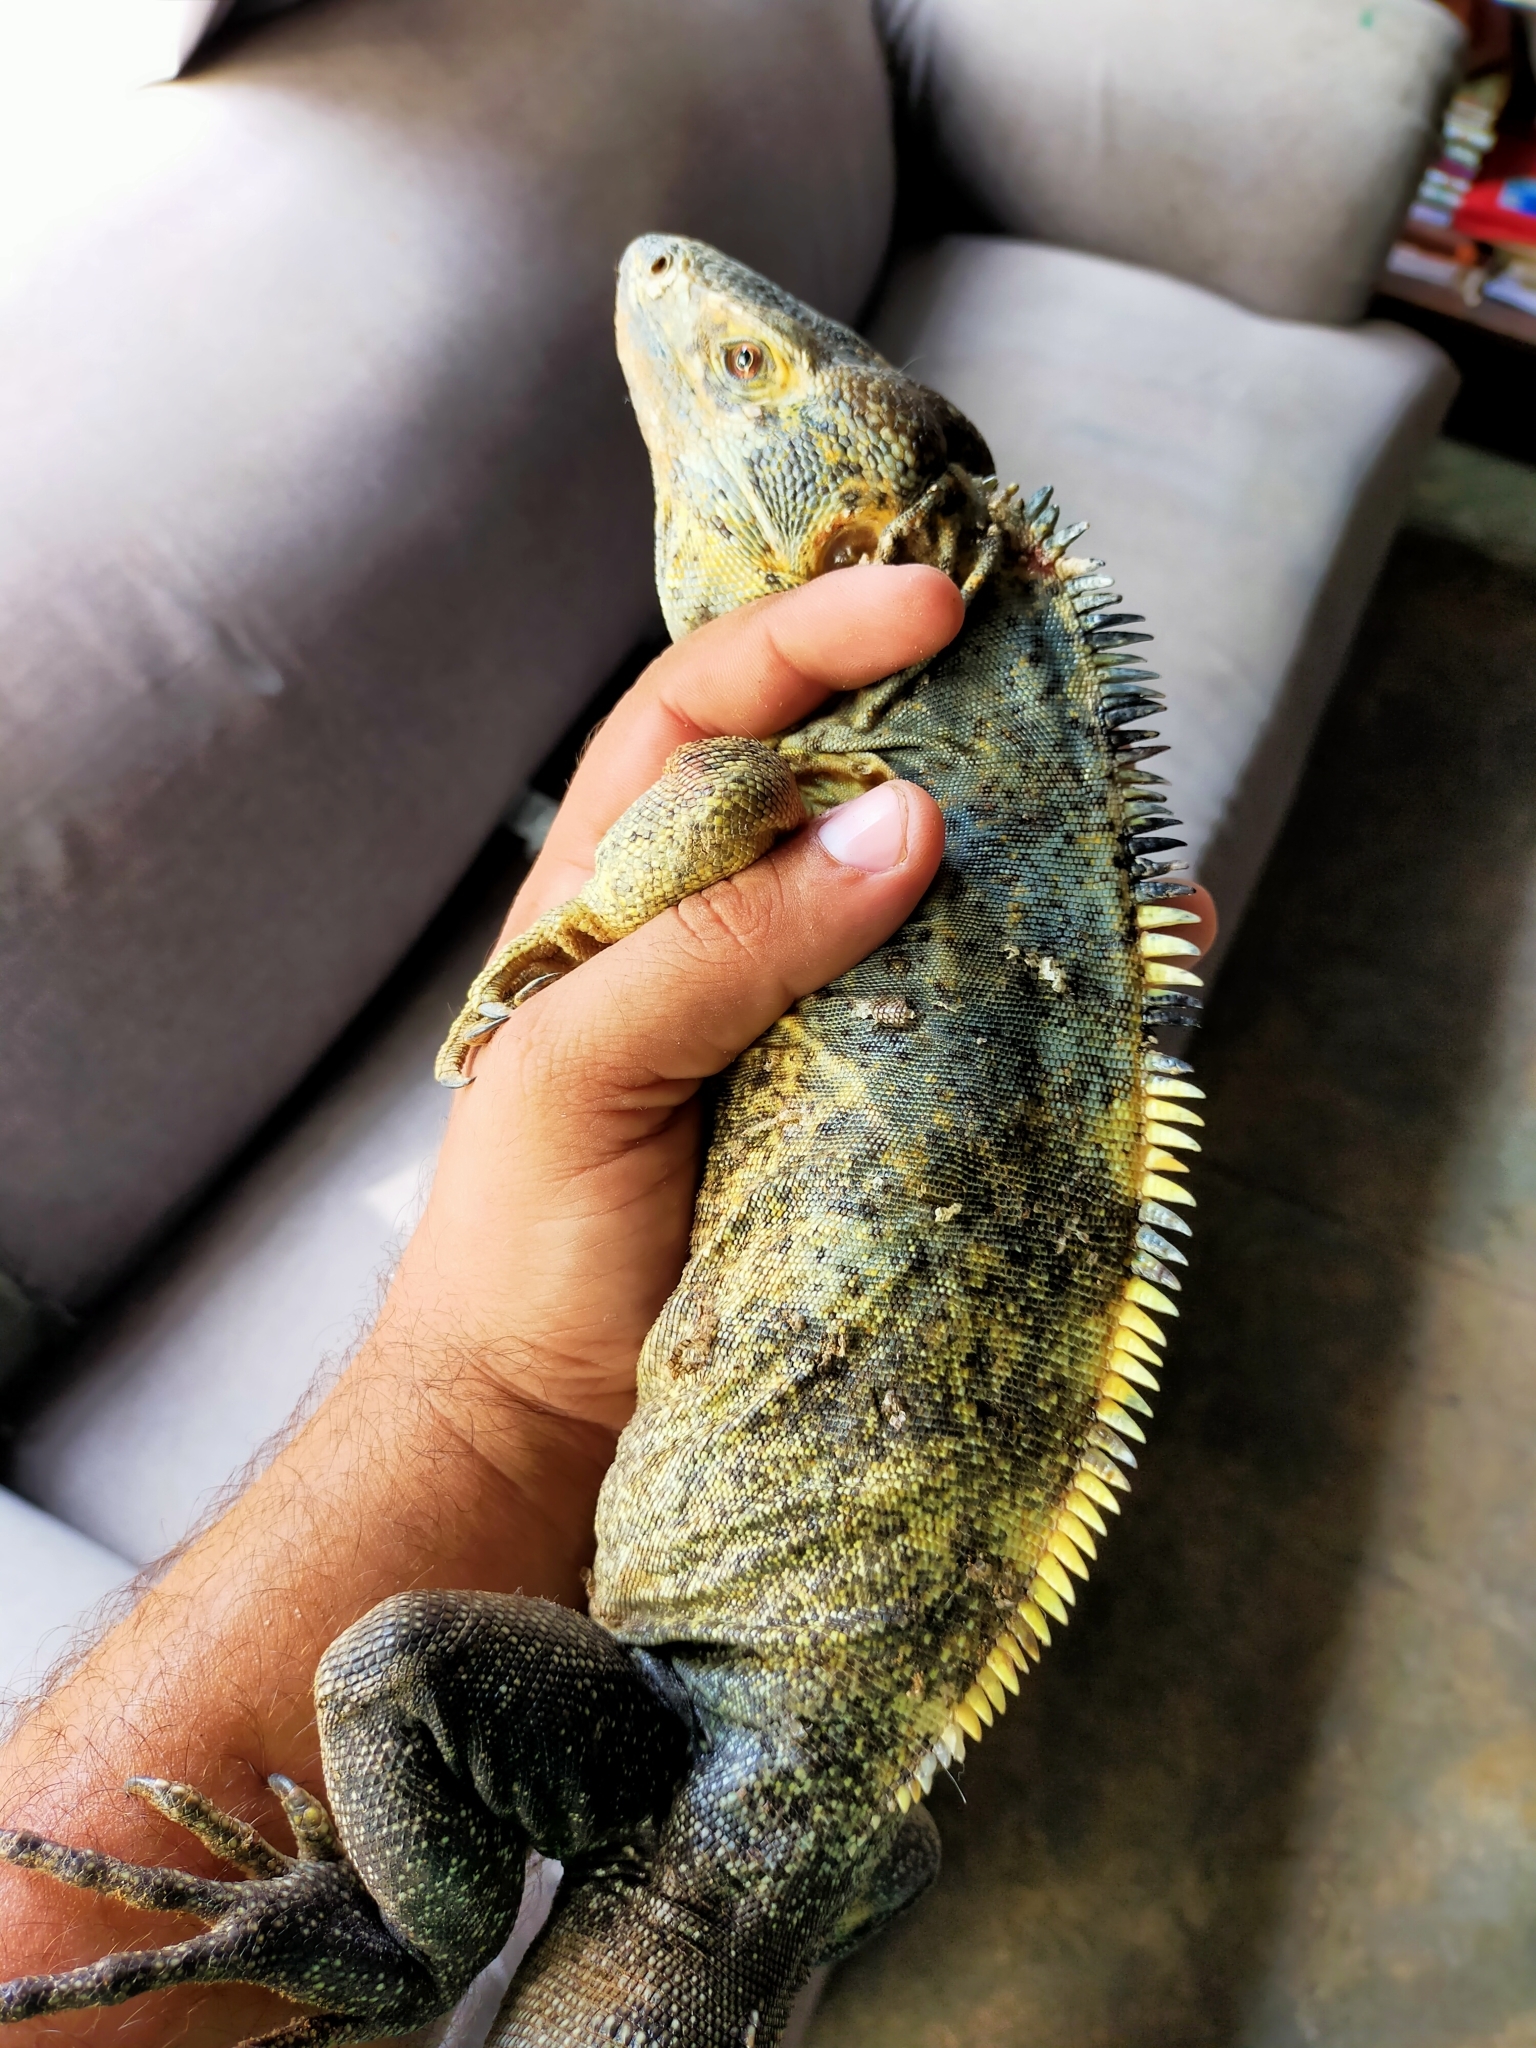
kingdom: Animalia
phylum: Chordata
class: Squamata
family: Iguanidae
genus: Ctenosaura
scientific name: Ctenosaura pectinata
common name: Guerreran spiny-tailed iguana
